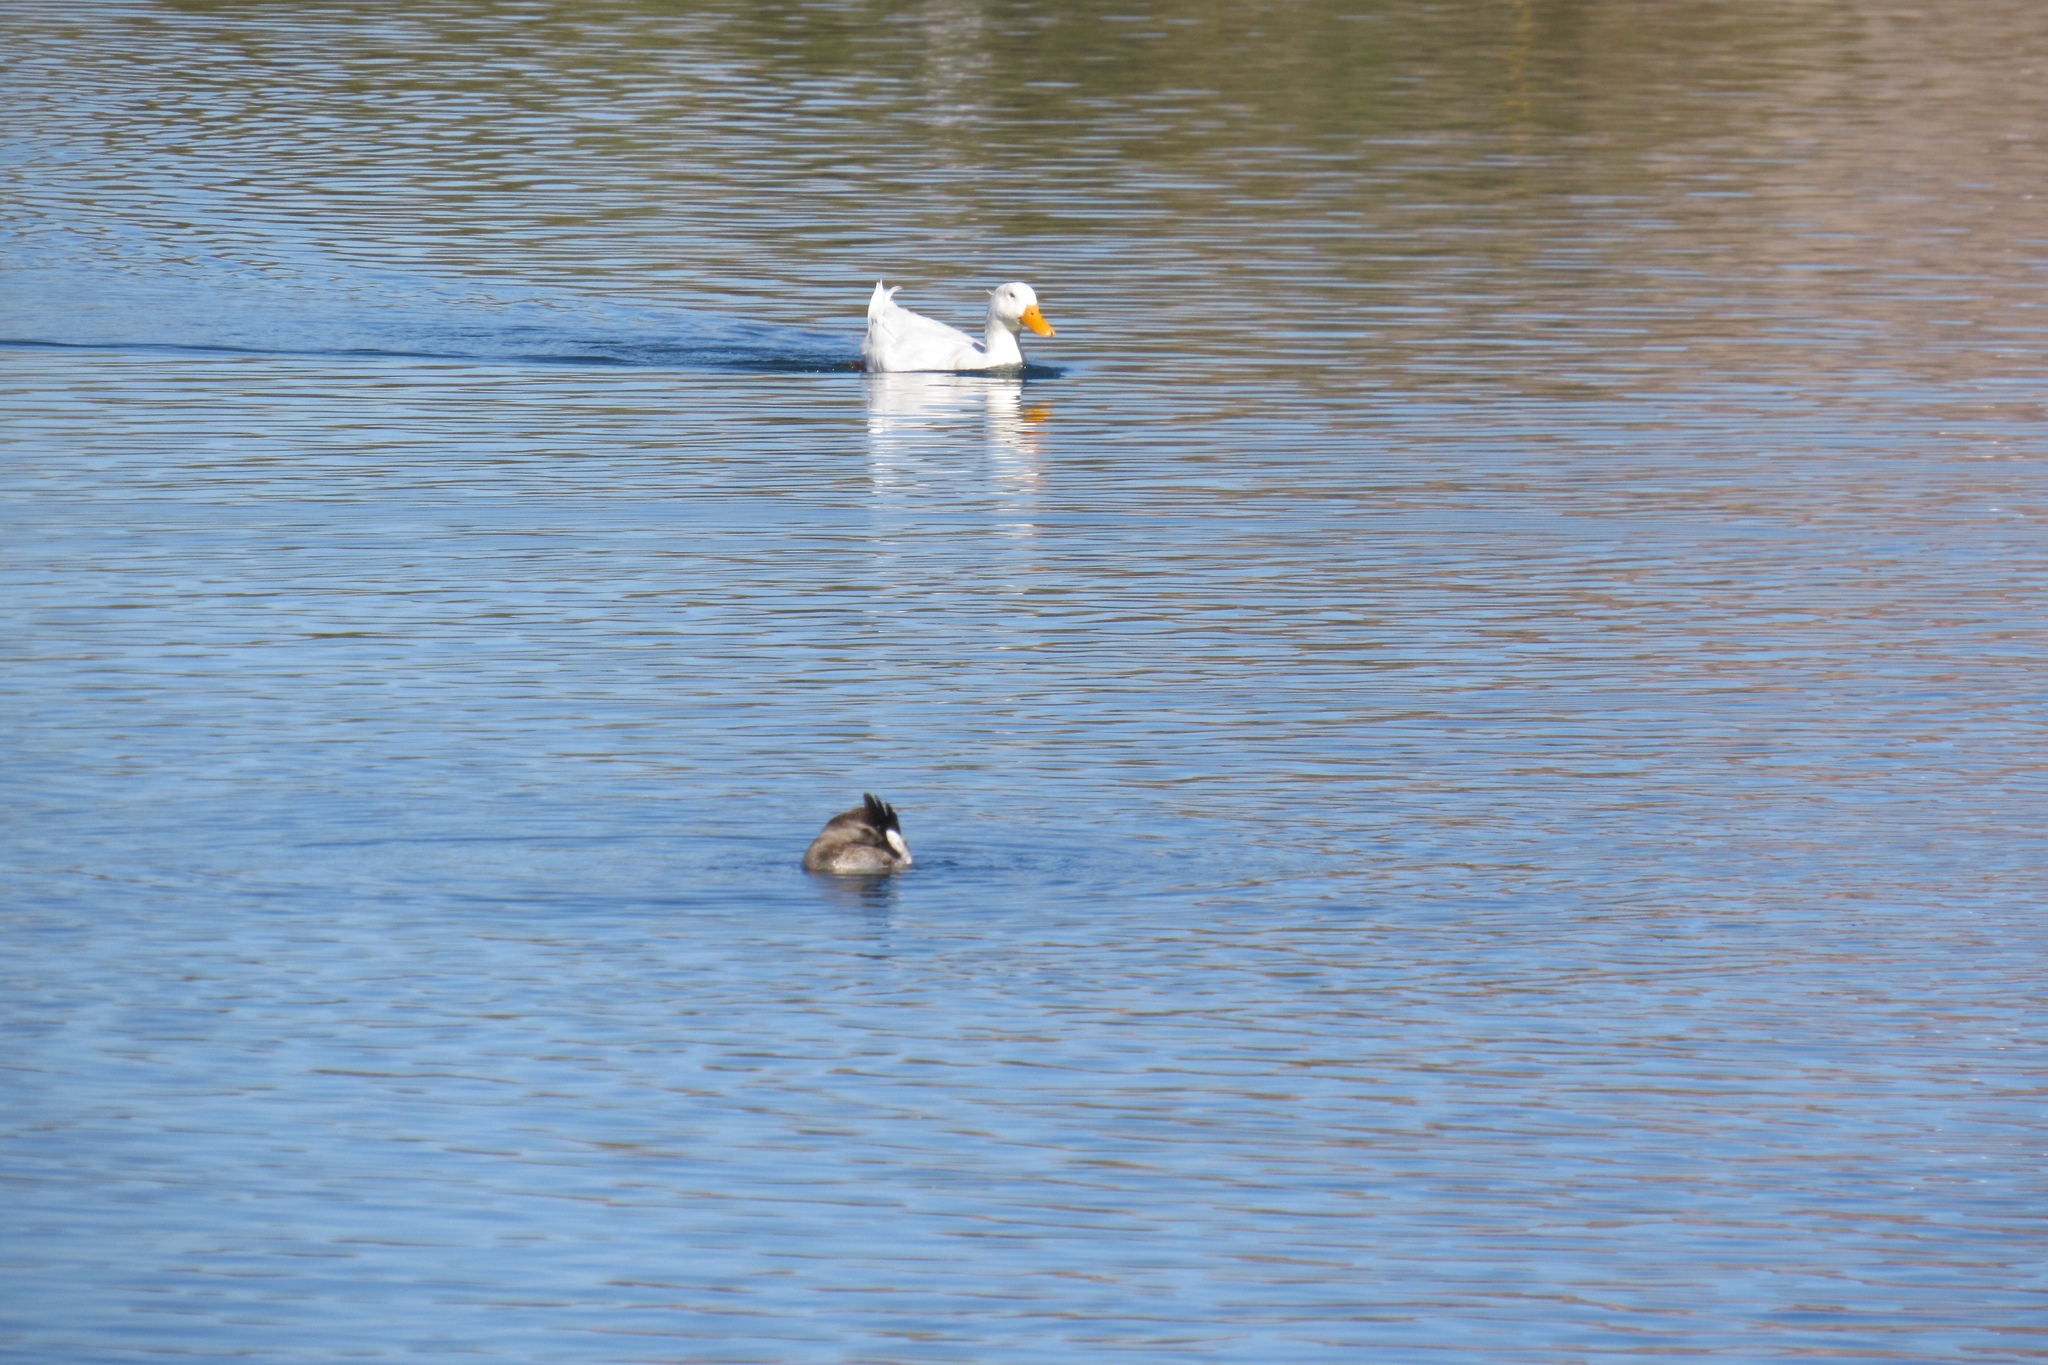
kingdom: Animalia
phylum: Chordata
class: Aves
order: Anseriformes
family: Anatidae
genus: Anas
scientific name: Anas platyrhynchos
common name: Mallard
